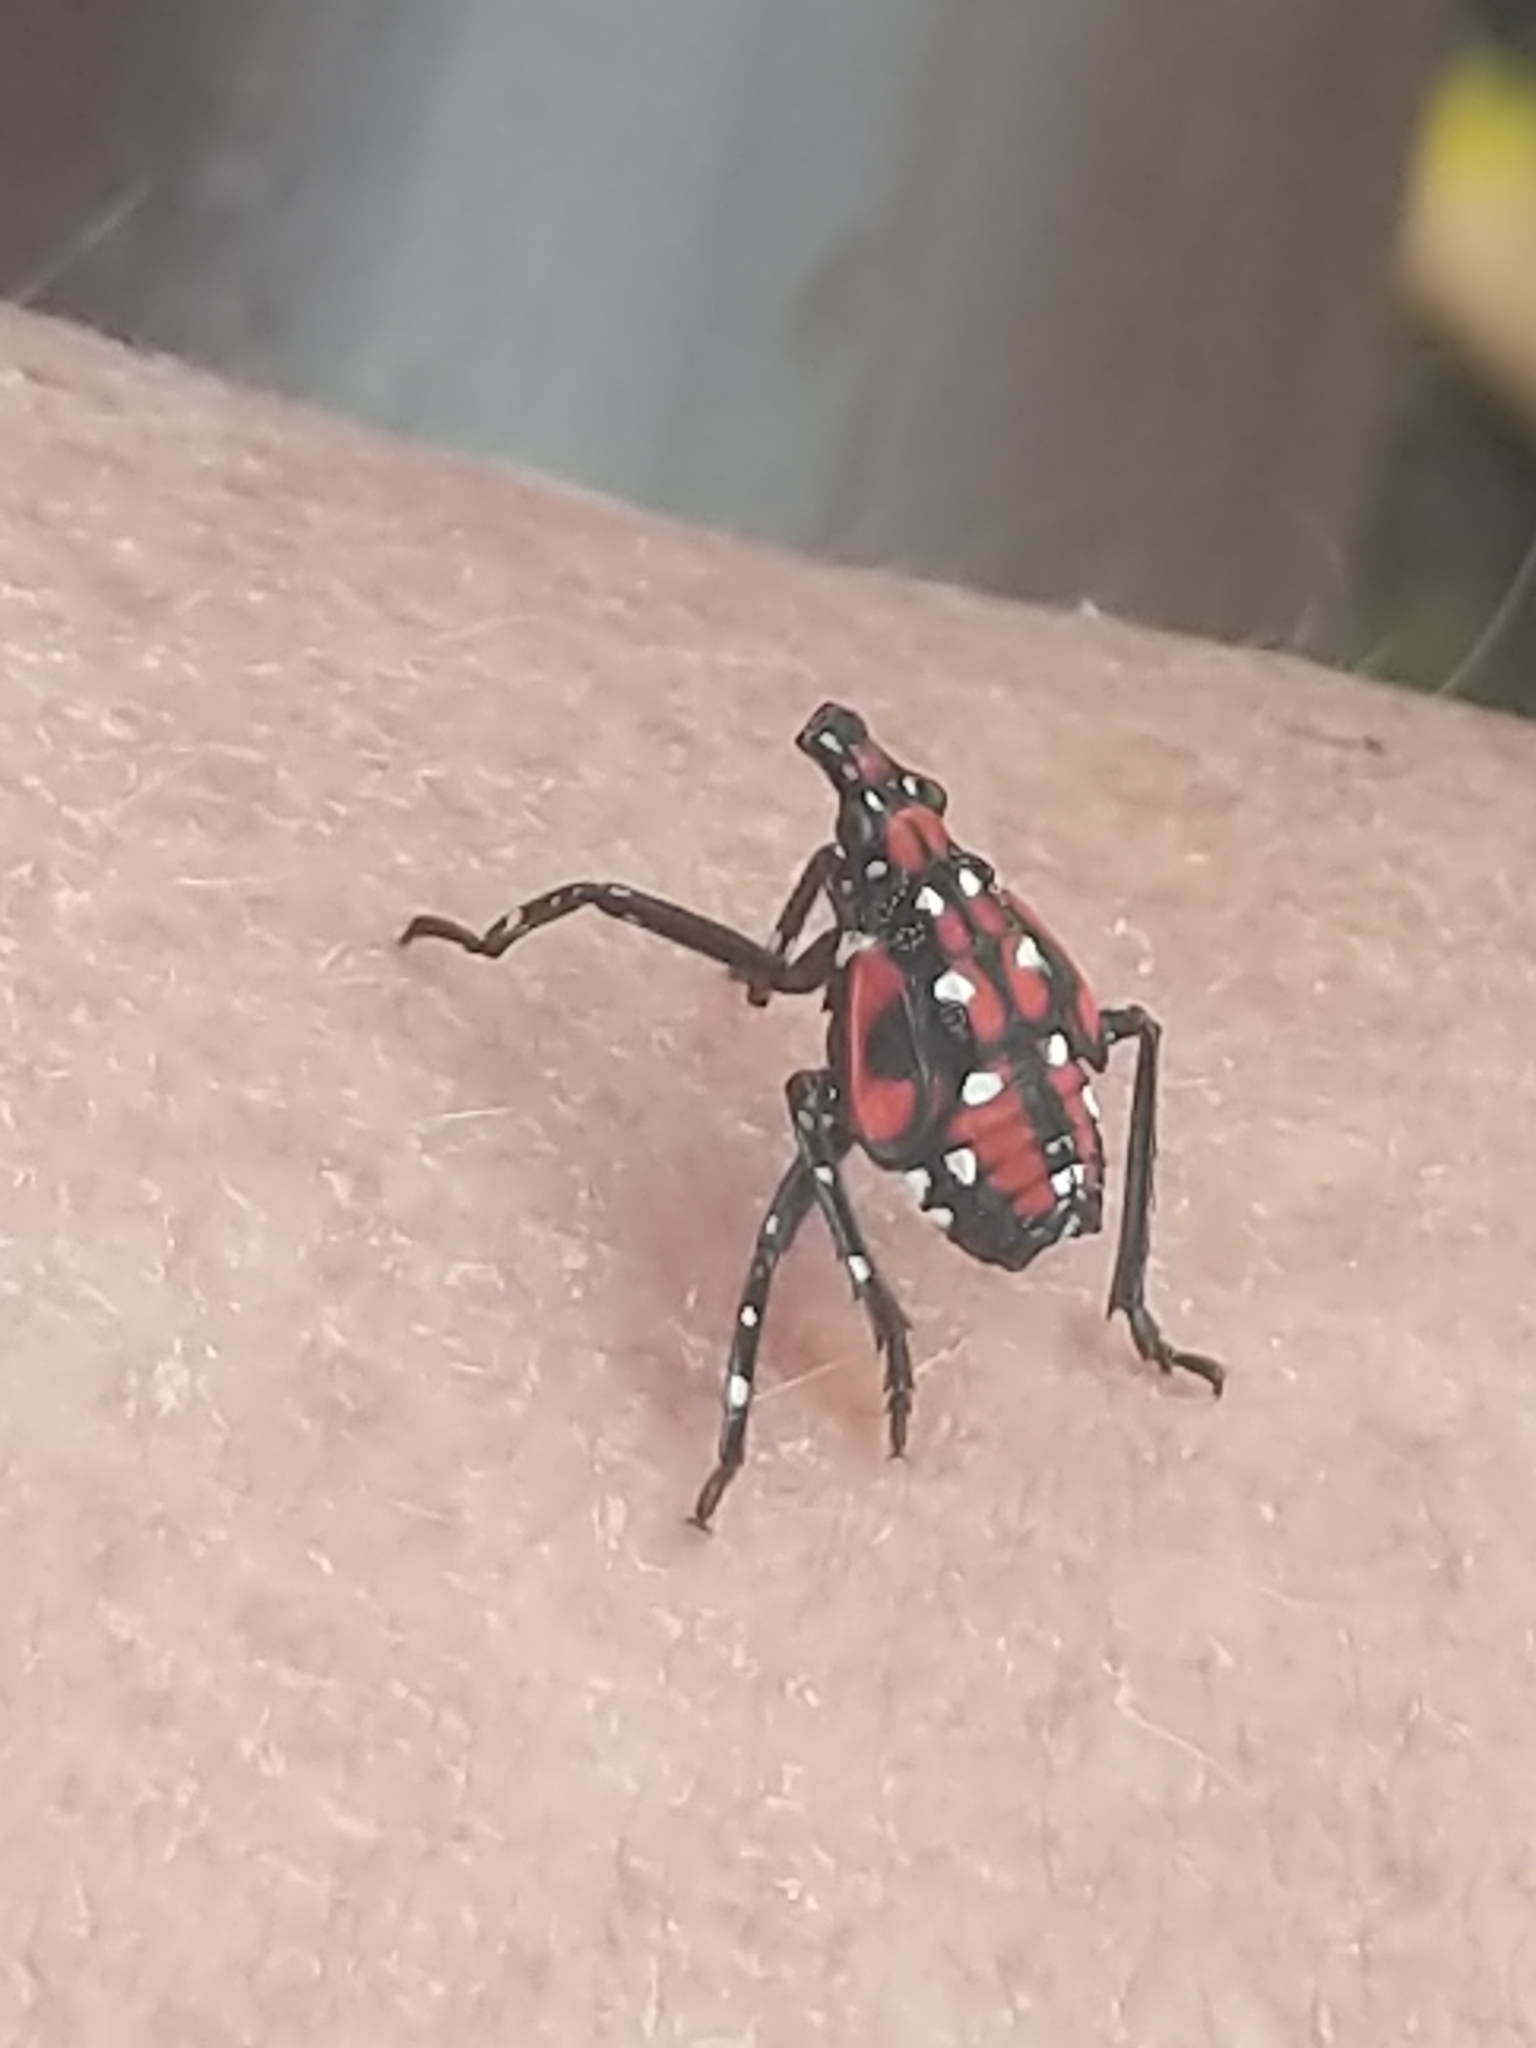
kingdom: Animalia
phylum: Arthropoda
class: Insecta
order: Hemiptera
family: Fulgoridae
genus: Lycorma
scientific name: Lycorma delicatula
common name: Spotted lanternfly
